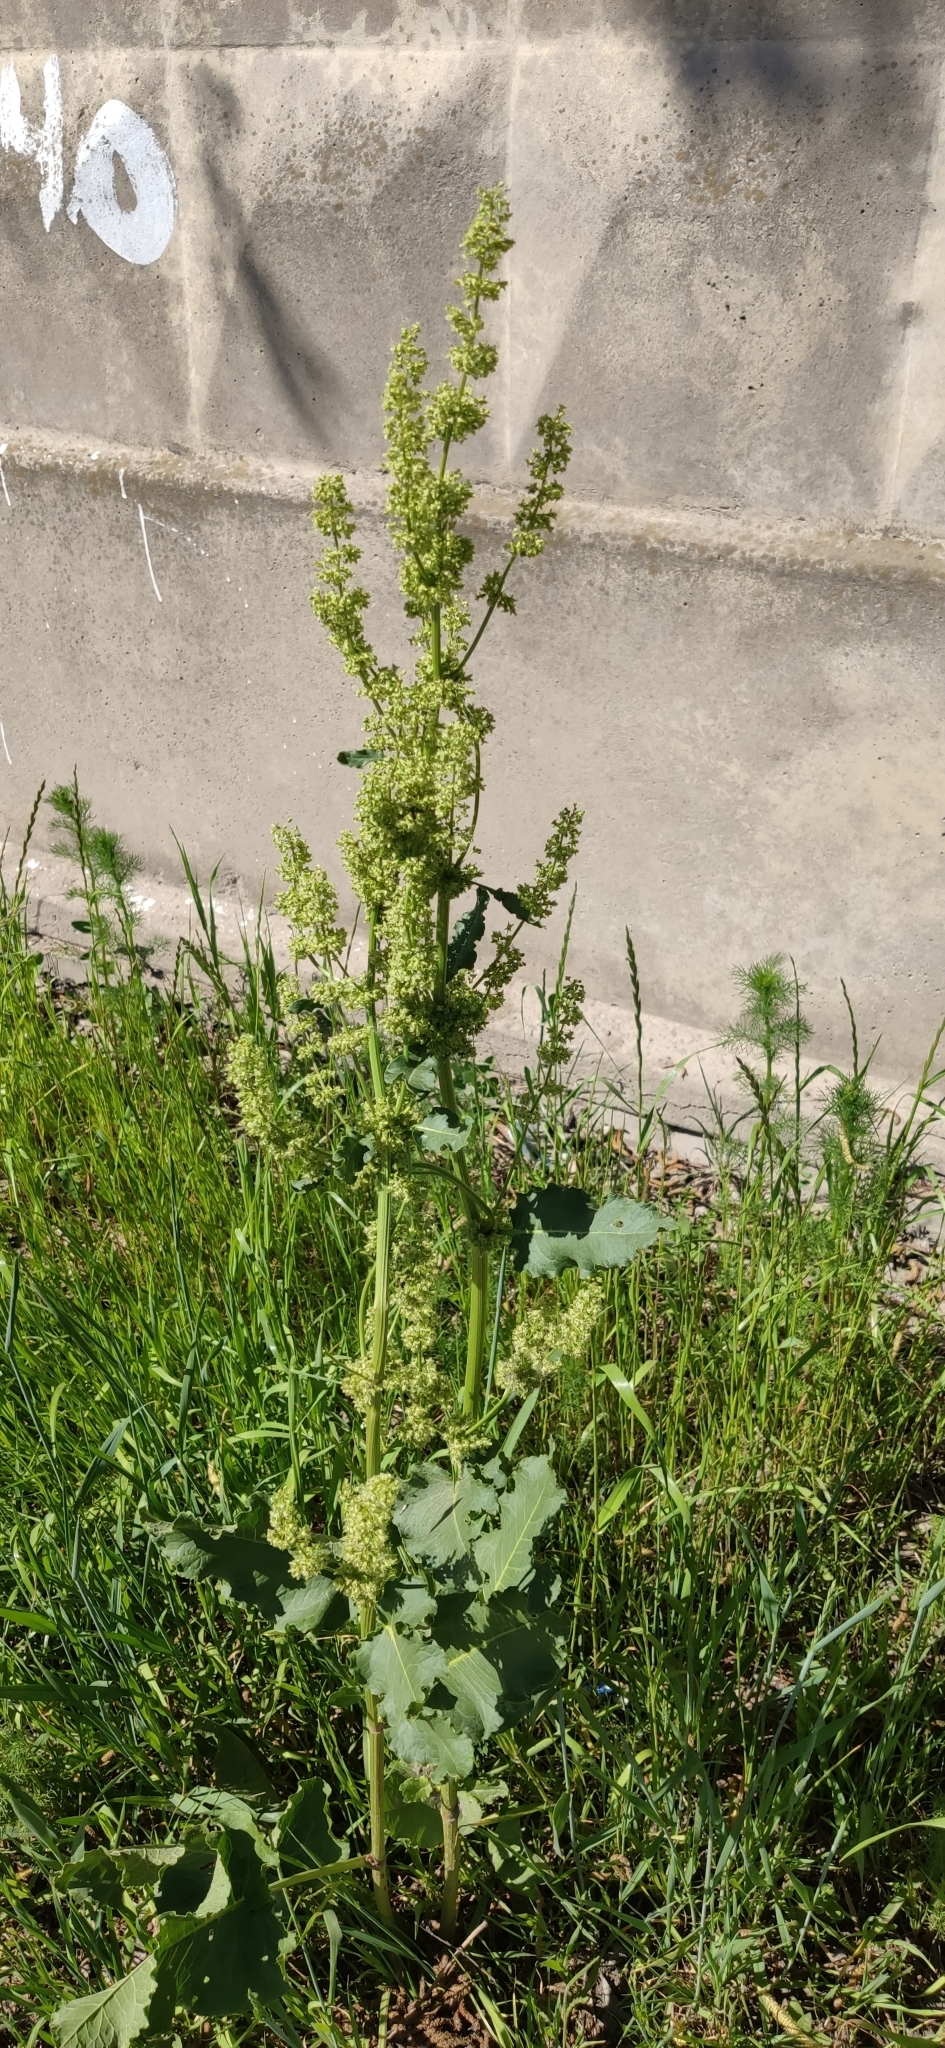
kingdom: Plantae
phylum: Tracheophyta
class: Magnoliopsida
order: Caryophyllales
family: Polygonaceae
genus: Rumex
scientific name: Rumex confertus
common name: Russian dock
